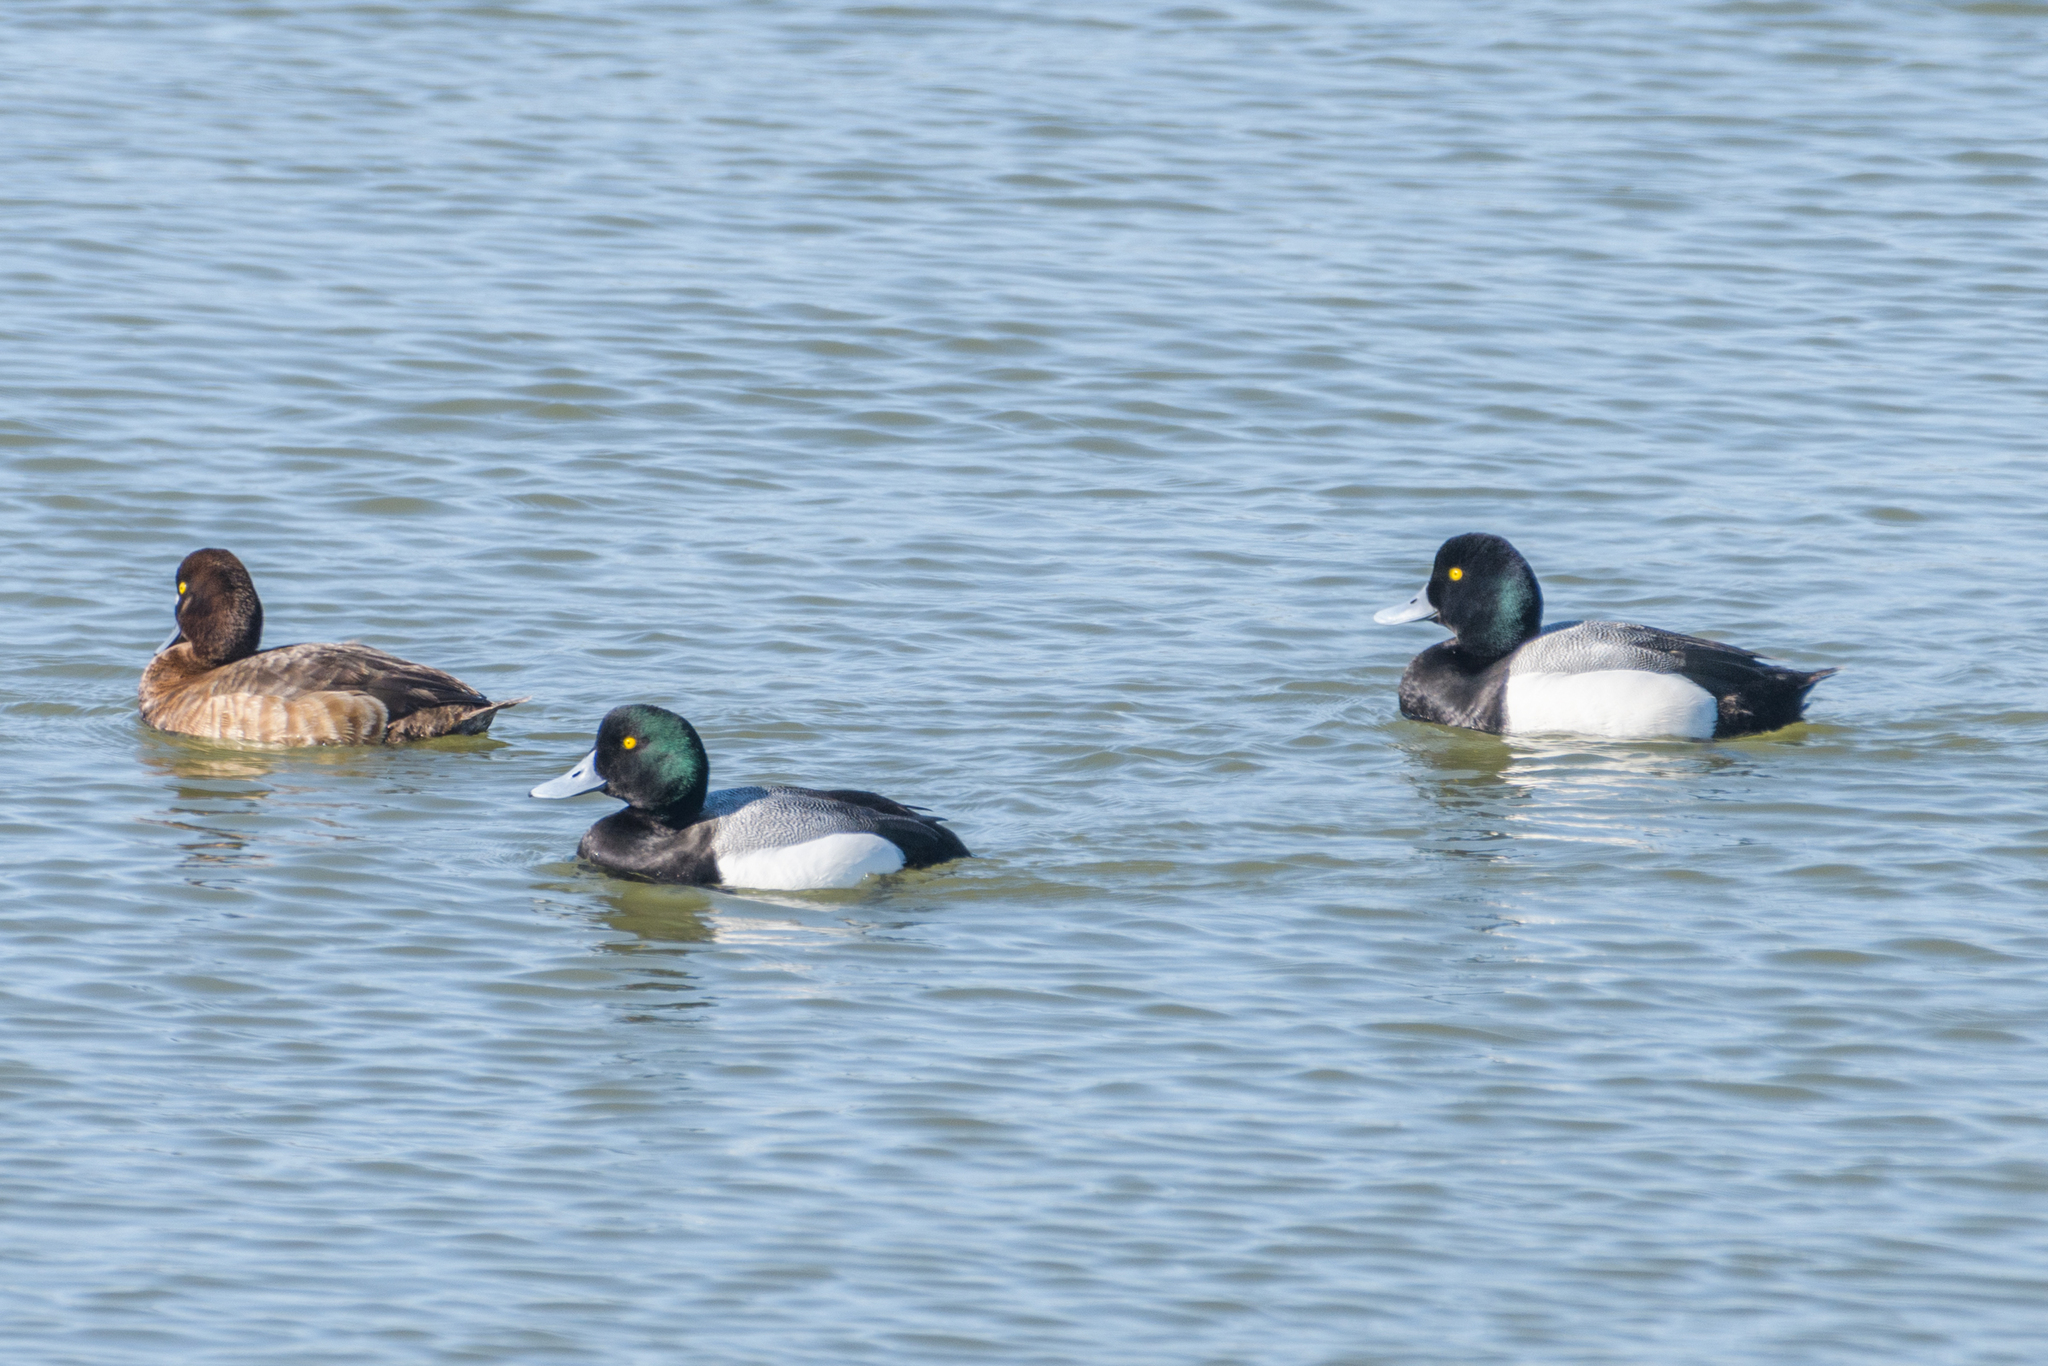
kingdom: Animalia
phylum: Chordata
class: Aves
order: Anseriformes
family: Anatidae
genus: Aythya
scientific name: Aythya marila
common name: Greater scaup
